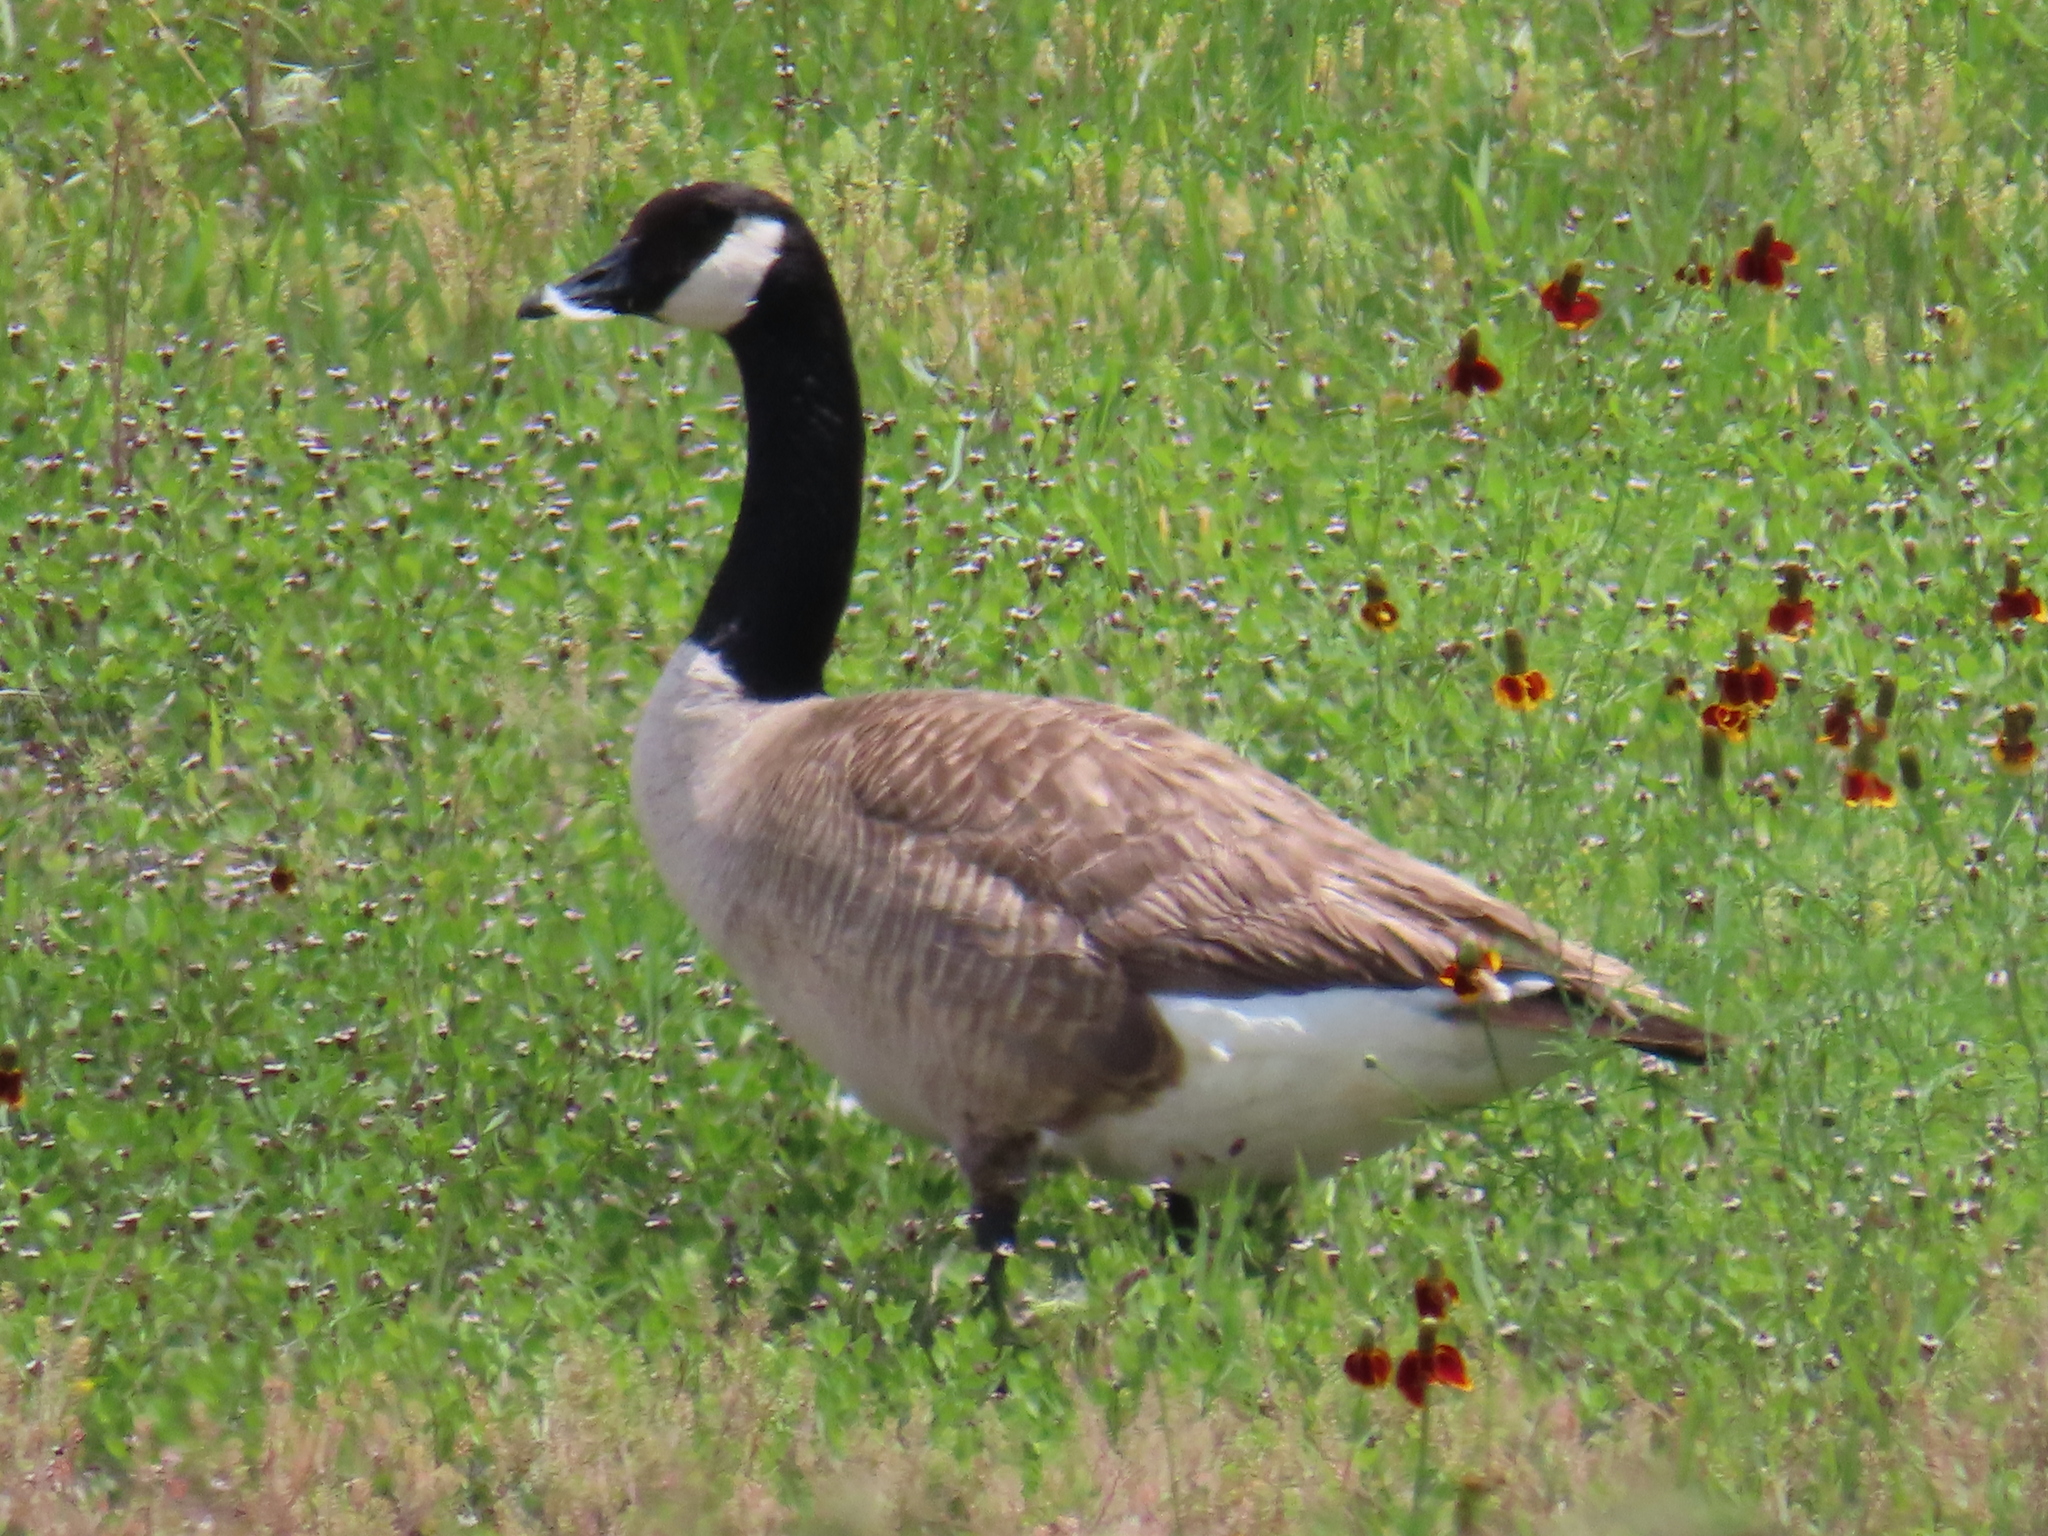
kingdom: Animalia
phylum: Chordata
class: Aves
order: Anseriformes
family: Anatidae
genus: Branta
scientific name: Branta canadensis
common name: Canada goose
